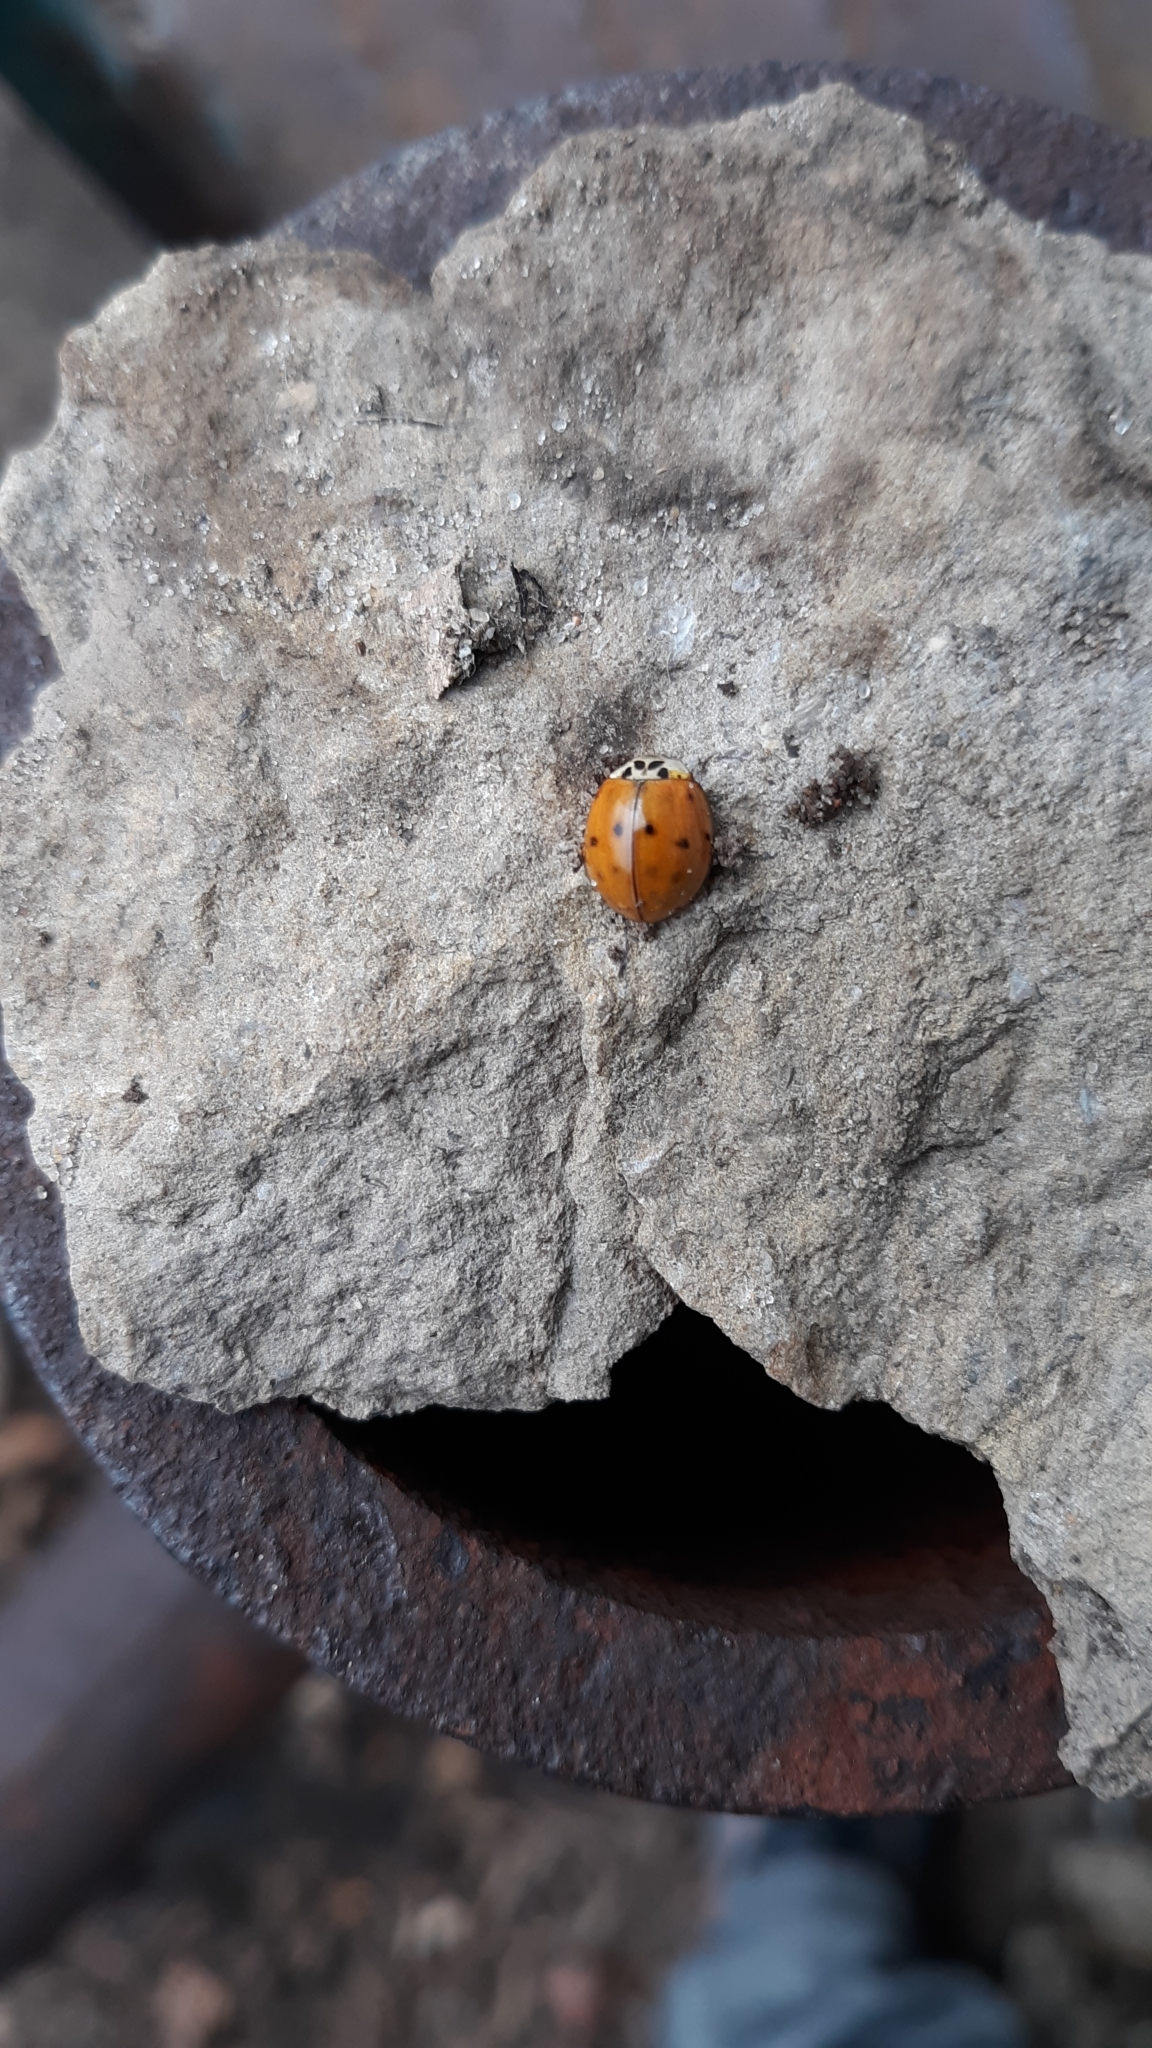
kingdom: Animalia
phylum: Arthropoda
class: Insecta
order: Coleoptera
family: Coccinellidae
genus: Harmonia
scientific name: Harmonia axyridis
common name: Harlequin ladybird
